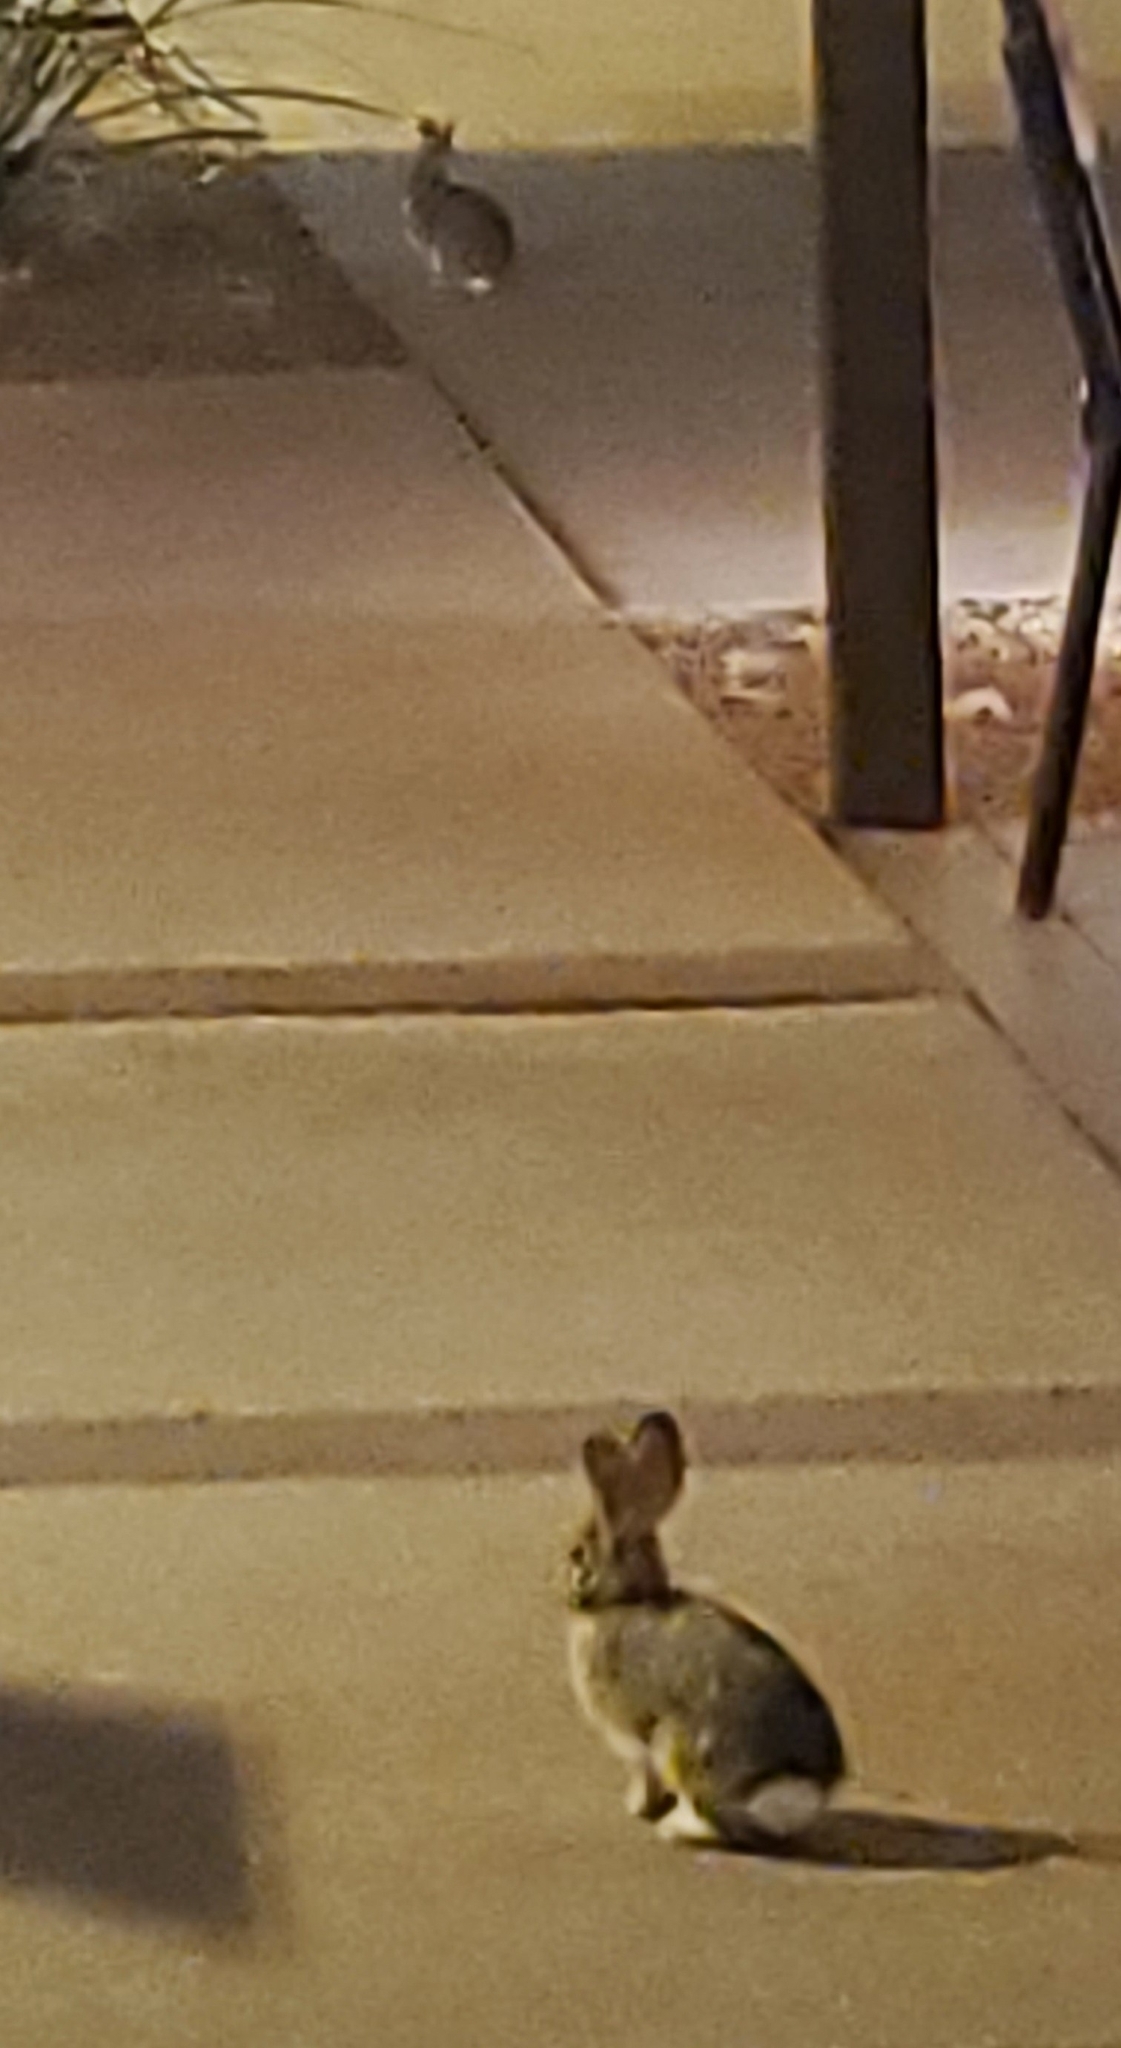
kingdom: Animalia
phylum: Chordata
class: Mammalia
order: Lagomorpha
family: Leporidae
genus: Sylvilagus
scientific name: Sylvilagus audubonii
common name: Desert cottontail
